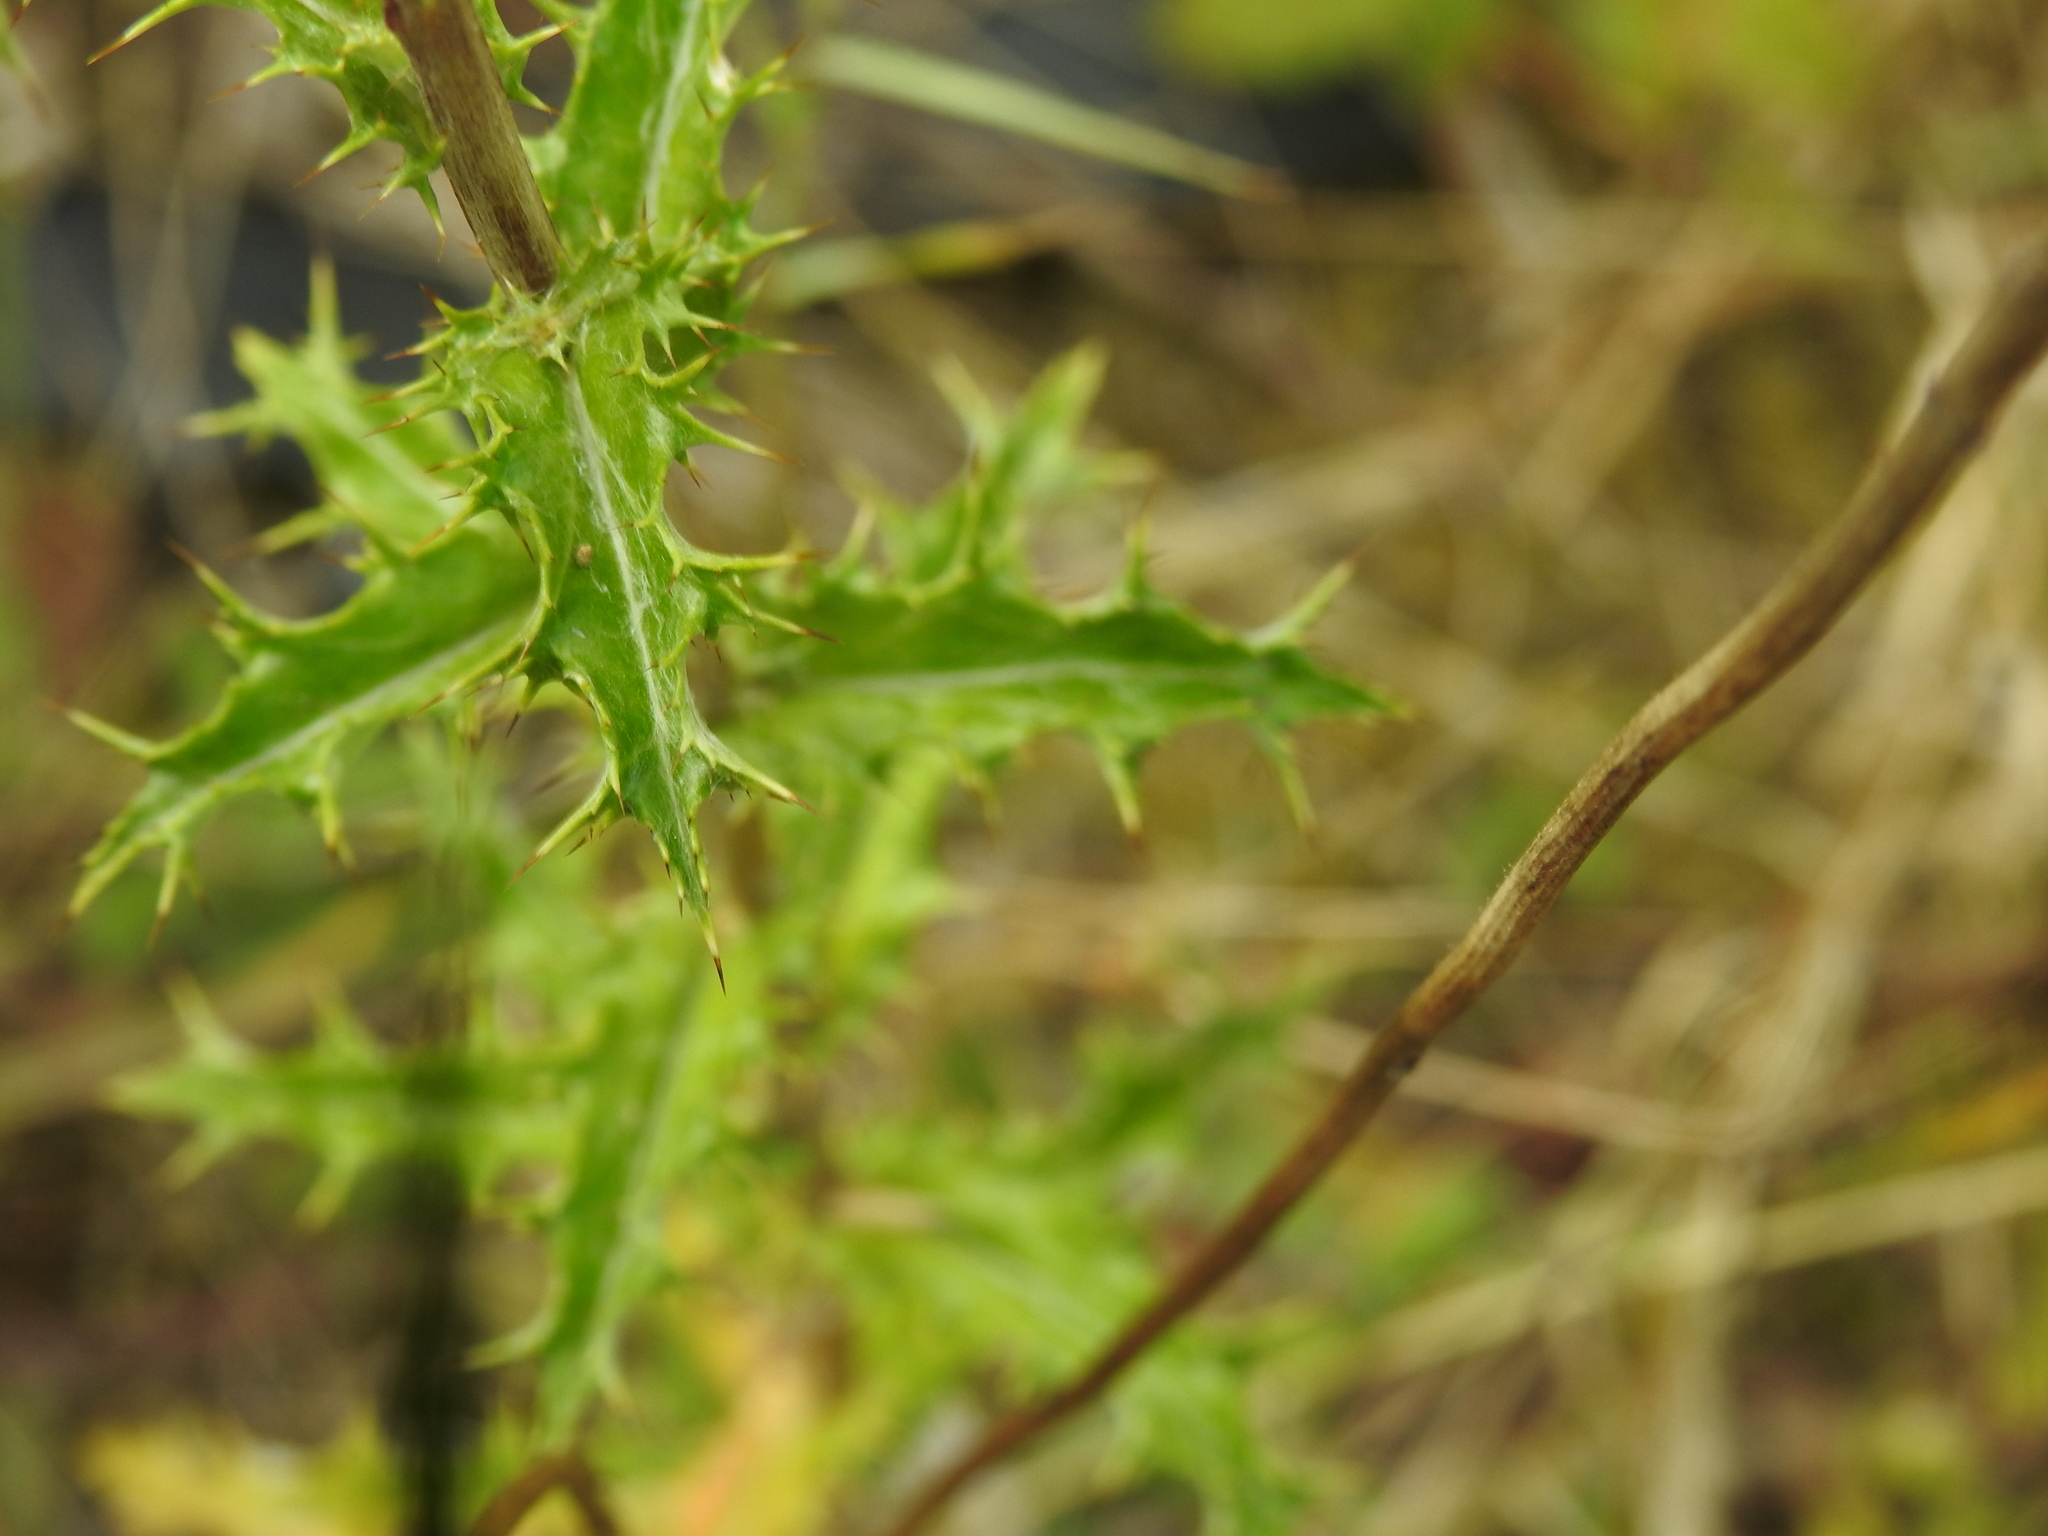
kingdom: Plantae
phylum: Tracheophyta
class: Magnoliopsida
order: Asterales
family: Asteraceae
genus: Carlina
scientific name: Carlina vulgaris
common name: Carline thistle
